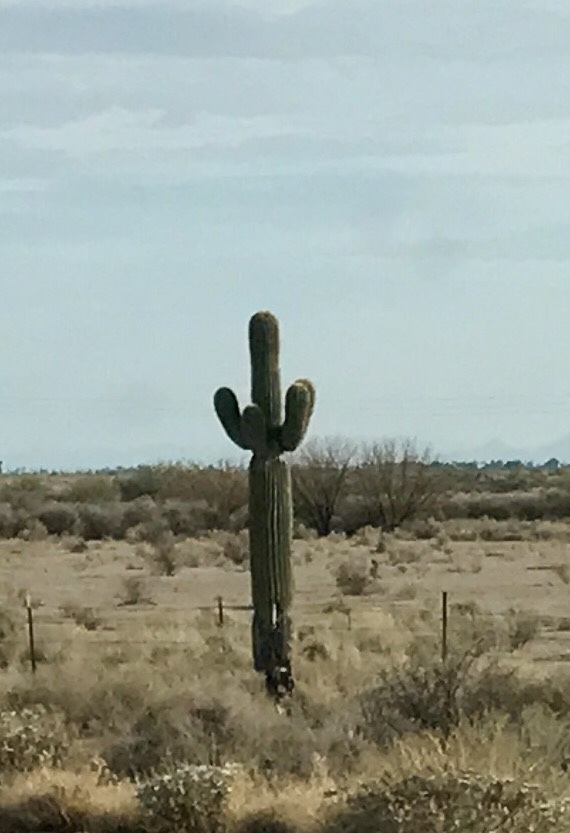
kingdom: Plantae
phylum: Tracheophyta
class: Magnoliopsida
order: Caryophyllales
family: Cactaceae
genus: Carnegiea
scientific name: Carnegiea gigantea
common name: Saguaro
